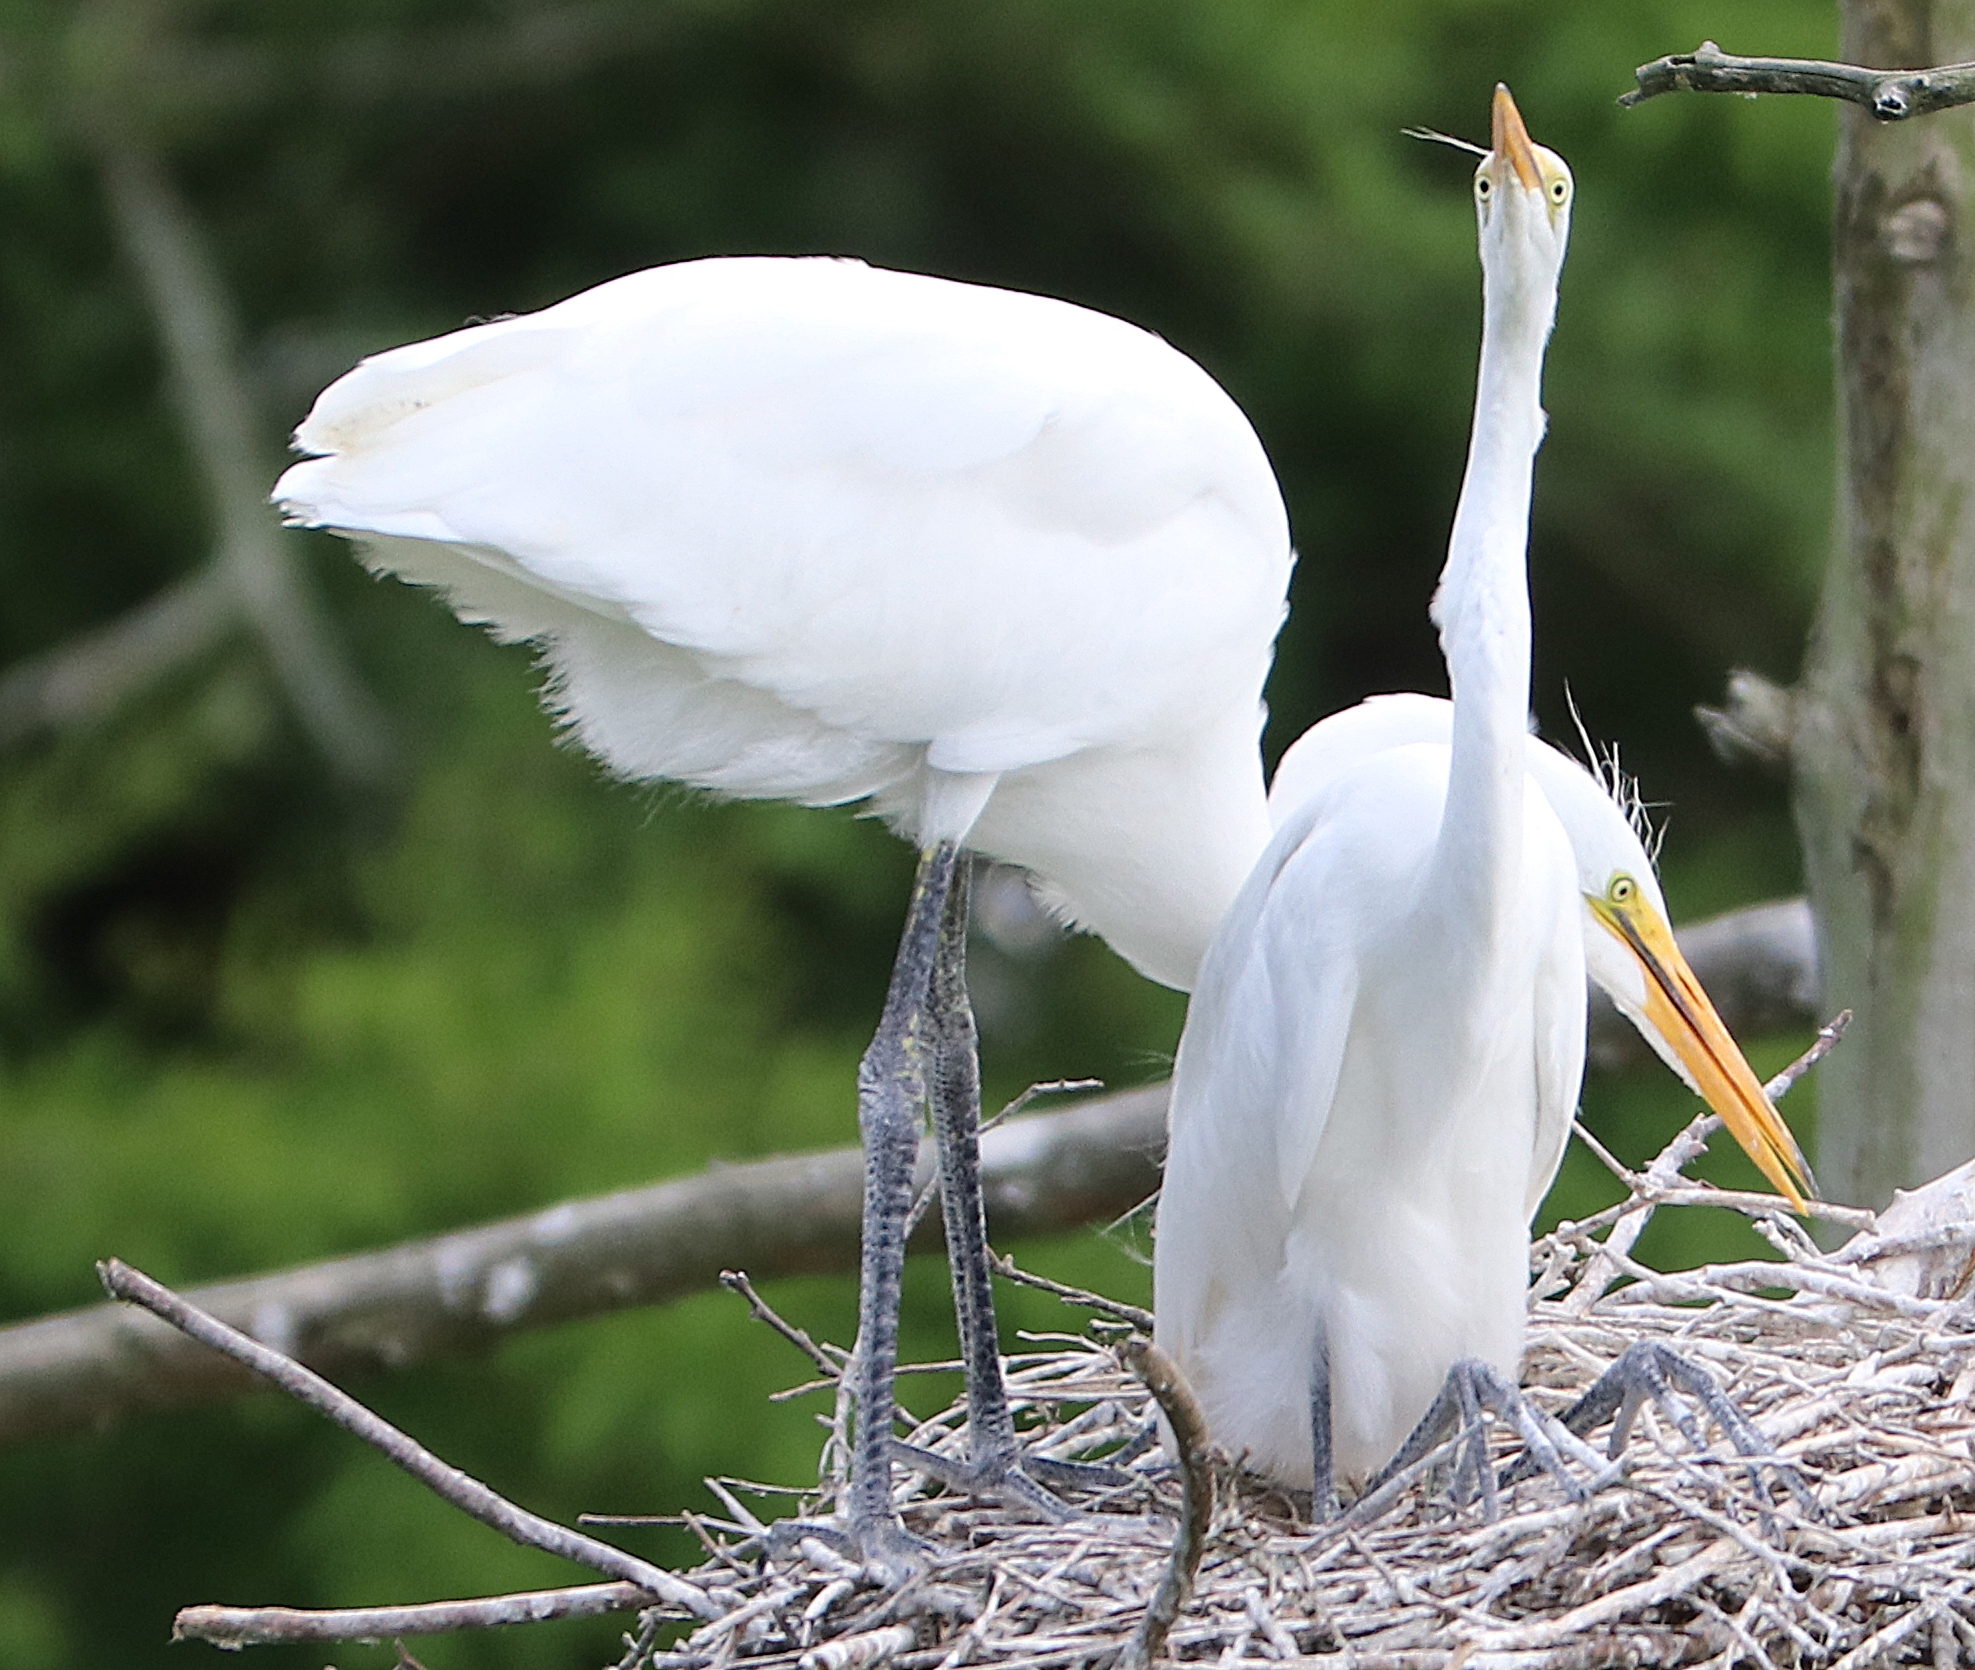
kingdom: Animalia
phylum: Chordata
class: Aves
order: Pelecaniformes
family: Ardeidae
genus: Ardea
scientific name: Ardea alba
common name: Great egret
